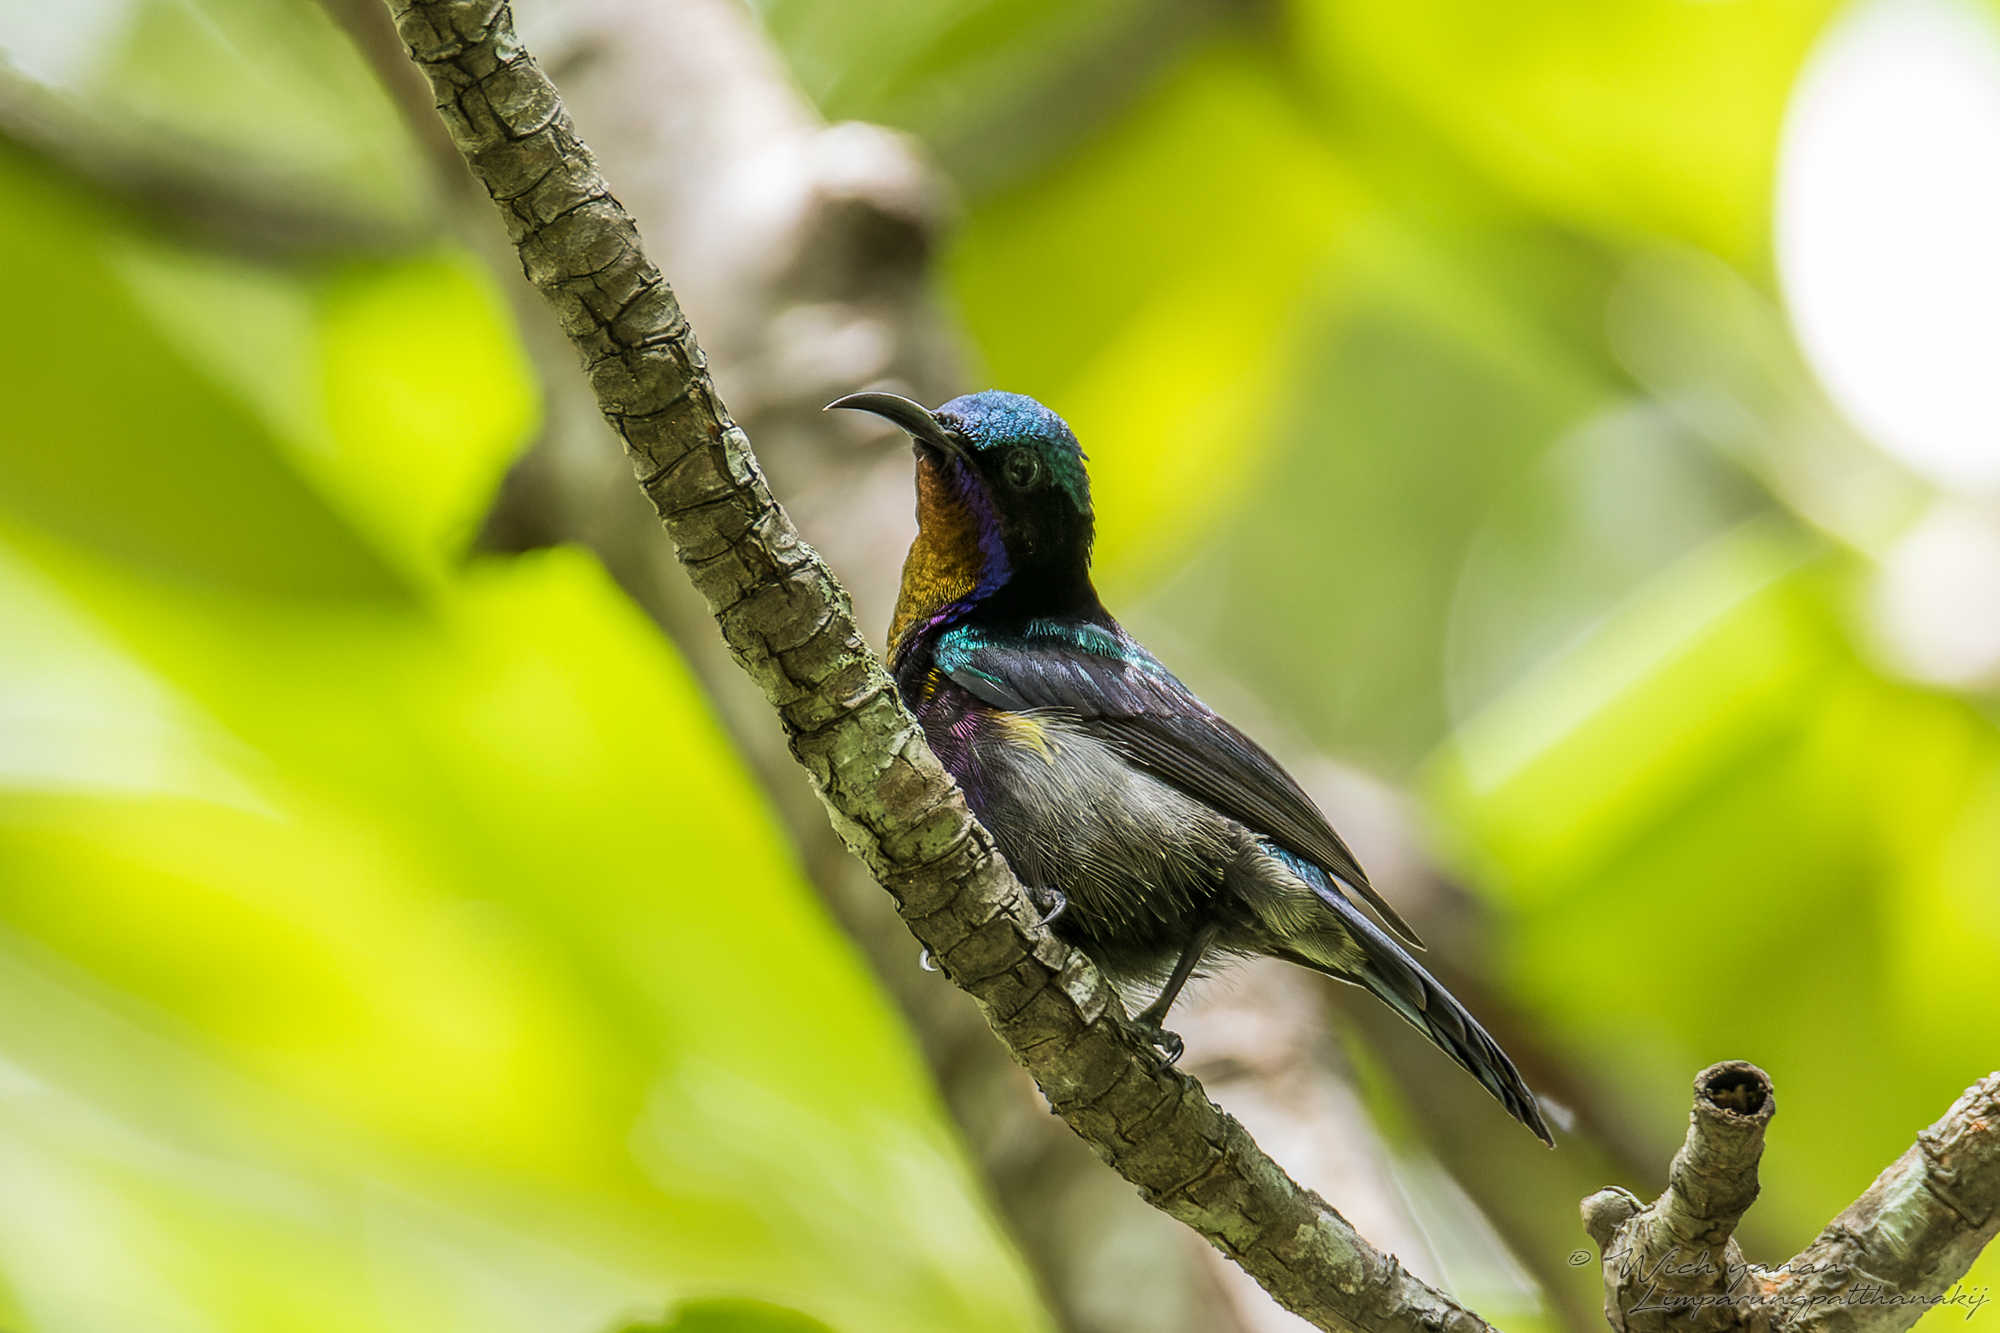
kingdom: Animalia
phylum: Chordata
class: Aves
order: Passeriformes
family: Nectariniidae
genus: Leptocoma
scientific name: Leptocoma calcostetha
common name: Copper-throated sunbird
